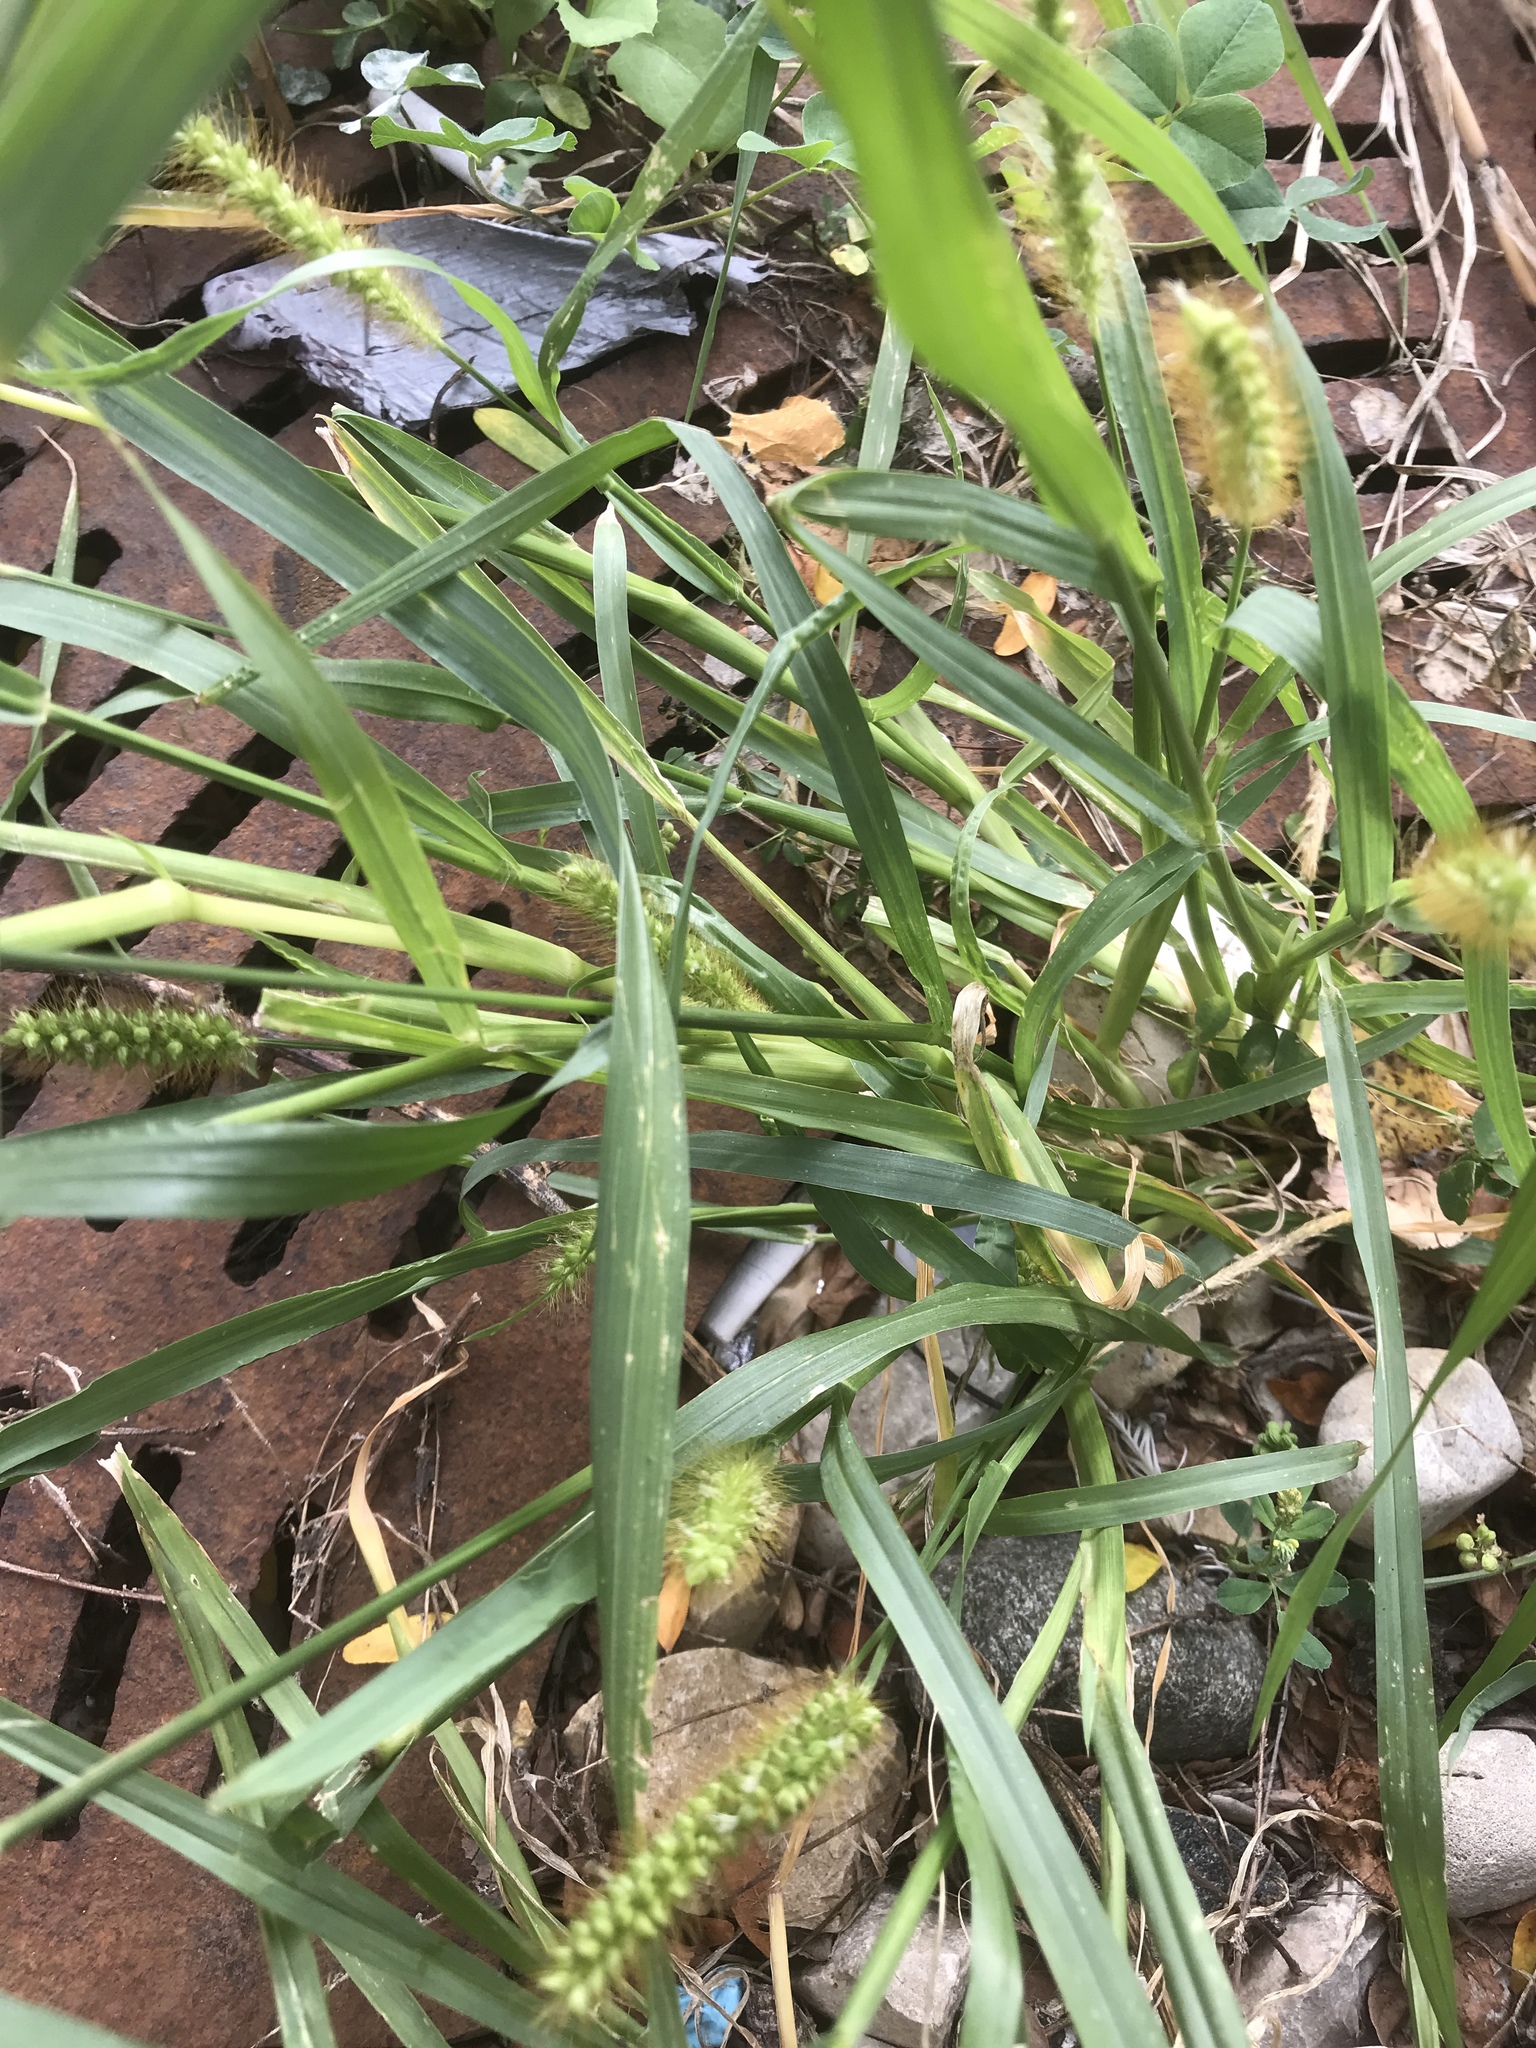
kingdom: Plantae
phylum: Tracheophyta
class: Liliopsida
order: Poales
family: Poaceae
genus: Setaria
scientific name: Setaria pumila
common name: Yellow bristle-grass
